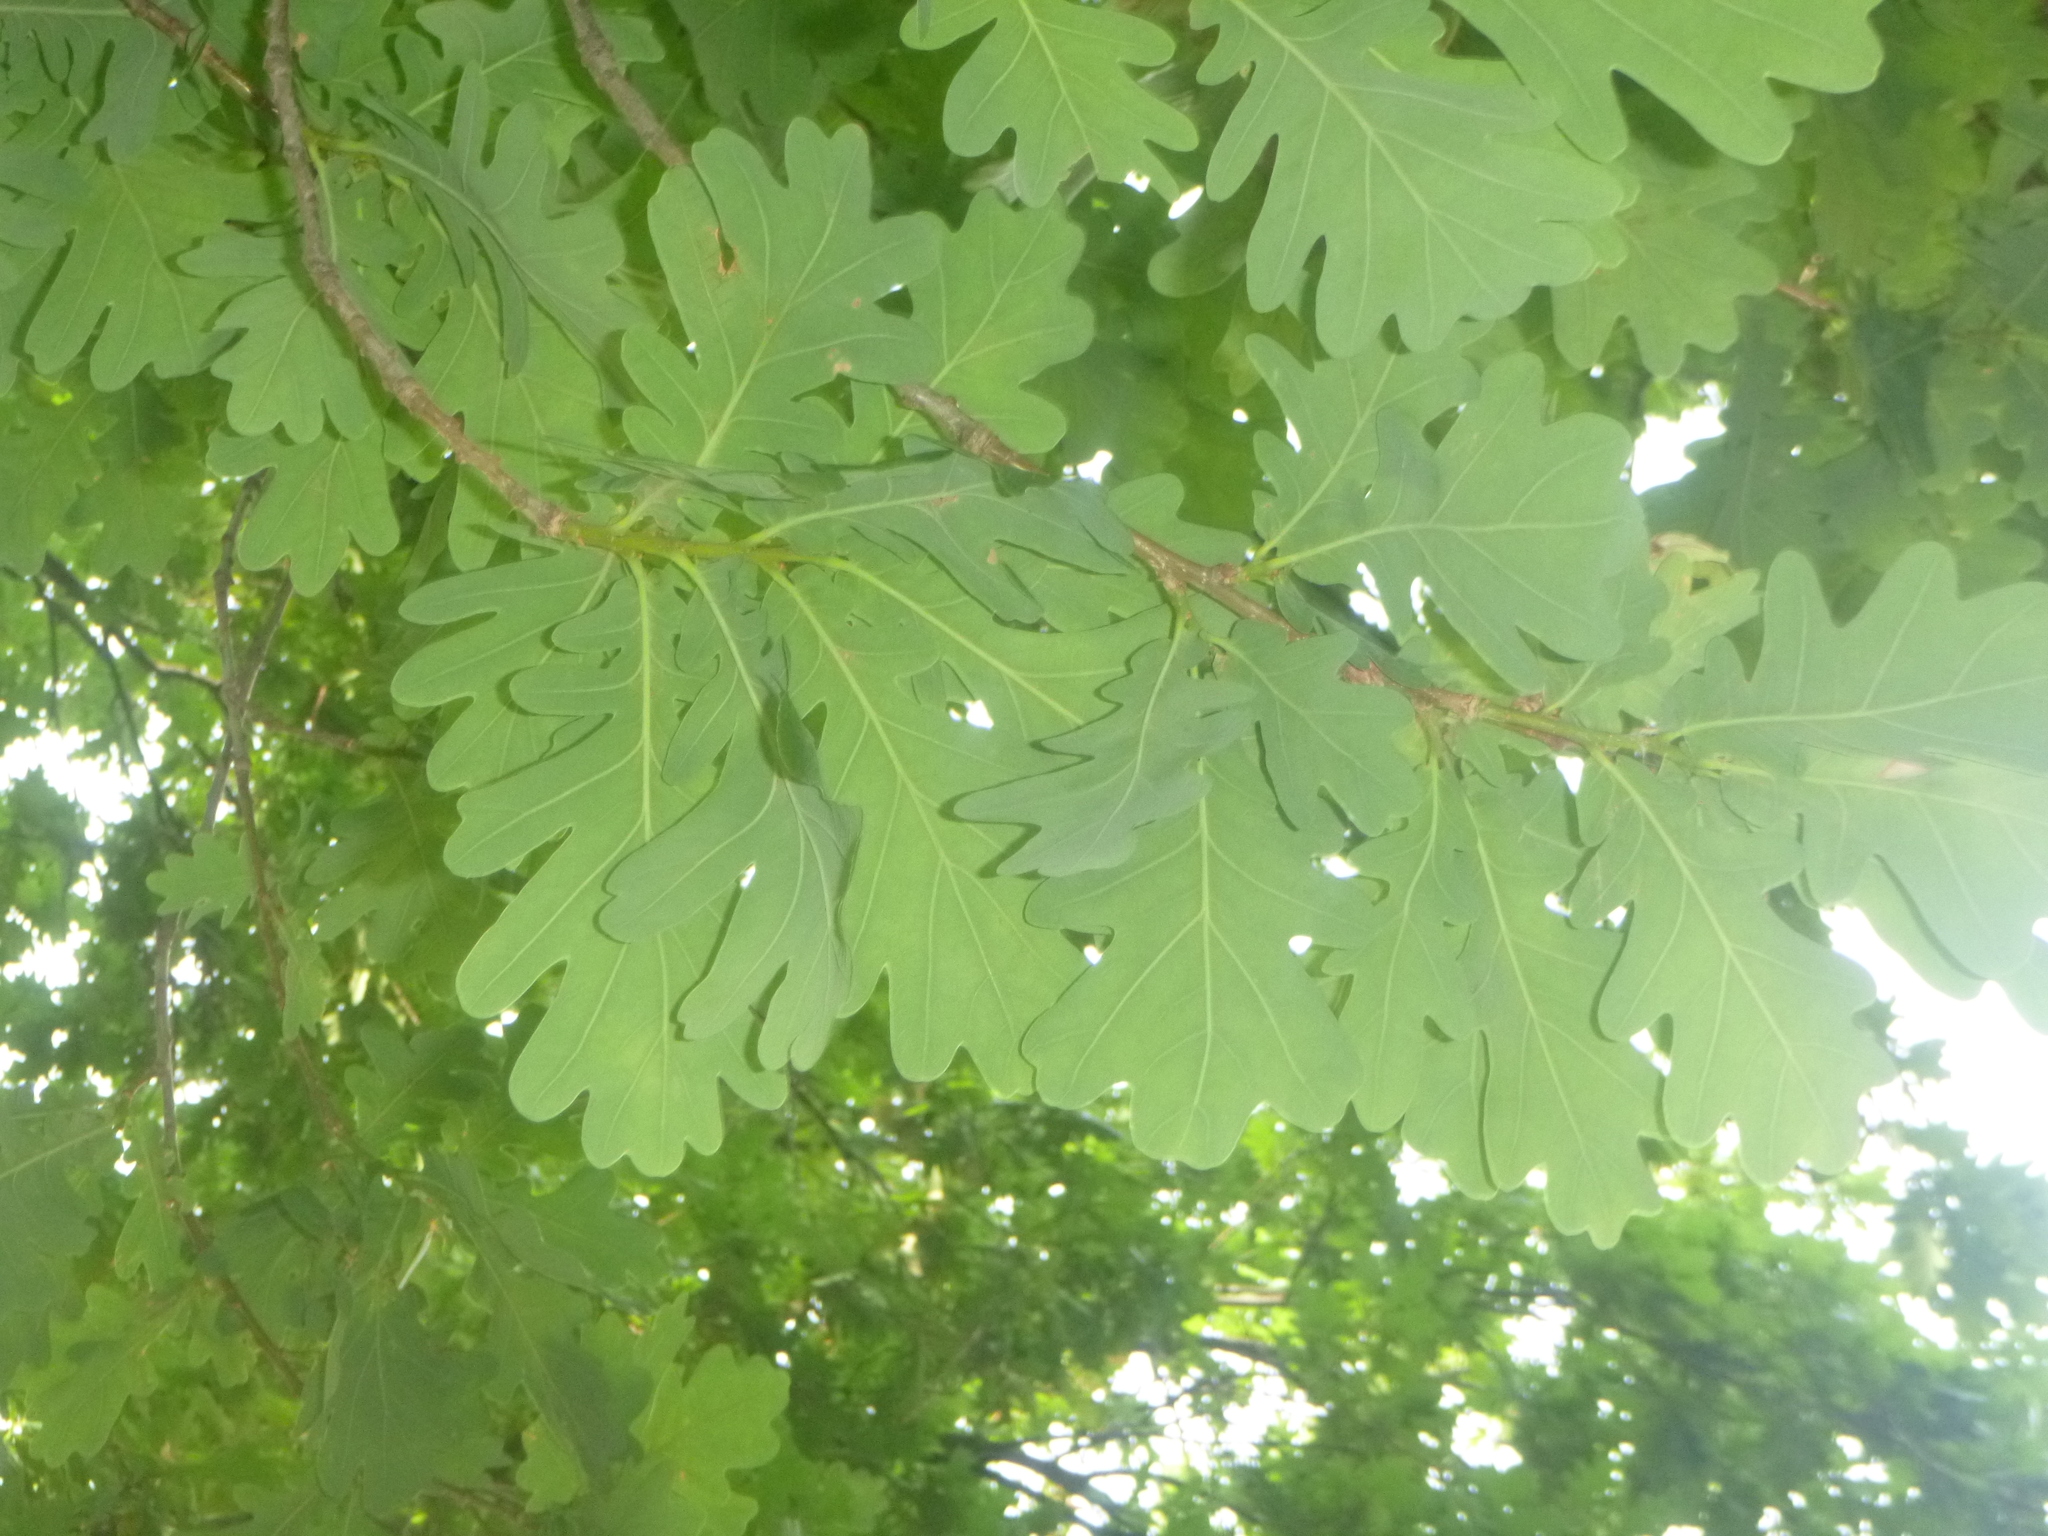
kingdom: Plantae
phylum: Tracheophyta
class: Magnoliopsida
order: Fagales
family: Fagaceae
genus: Quercus
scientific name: Quercus robur
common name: Pedunculate oak
